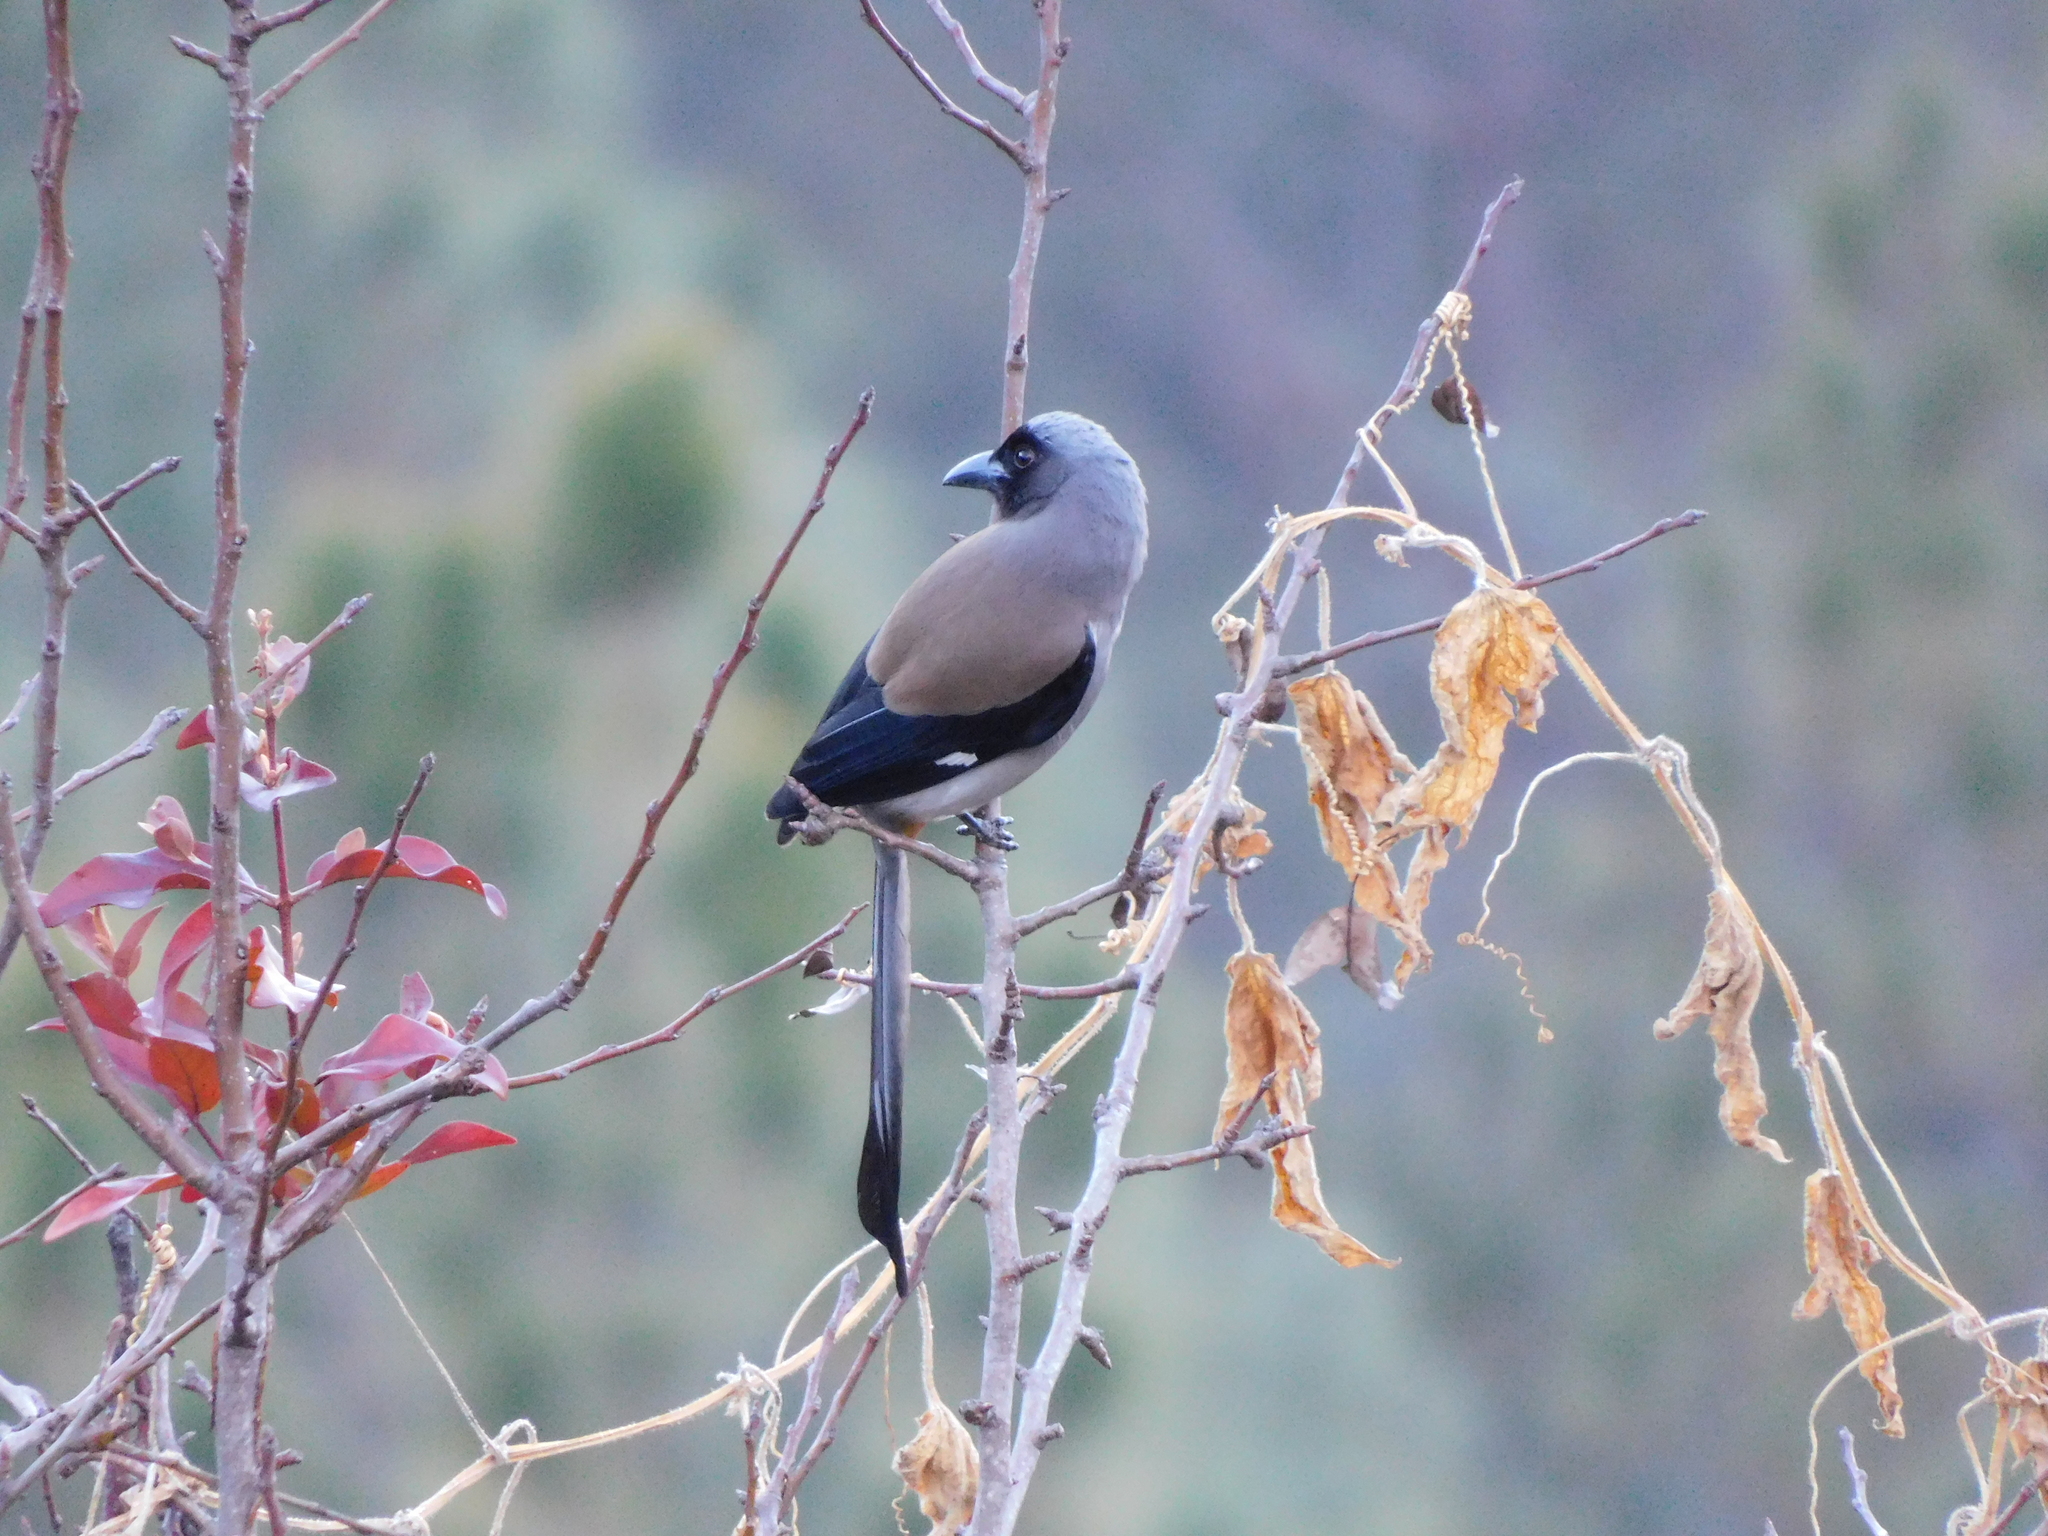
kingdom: Animalia
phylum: Chordata
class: Aves
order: Passeriformes
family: Corvidae
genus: Dendrocitta
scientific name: Dendrocitta formosae
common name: Grey treepie
